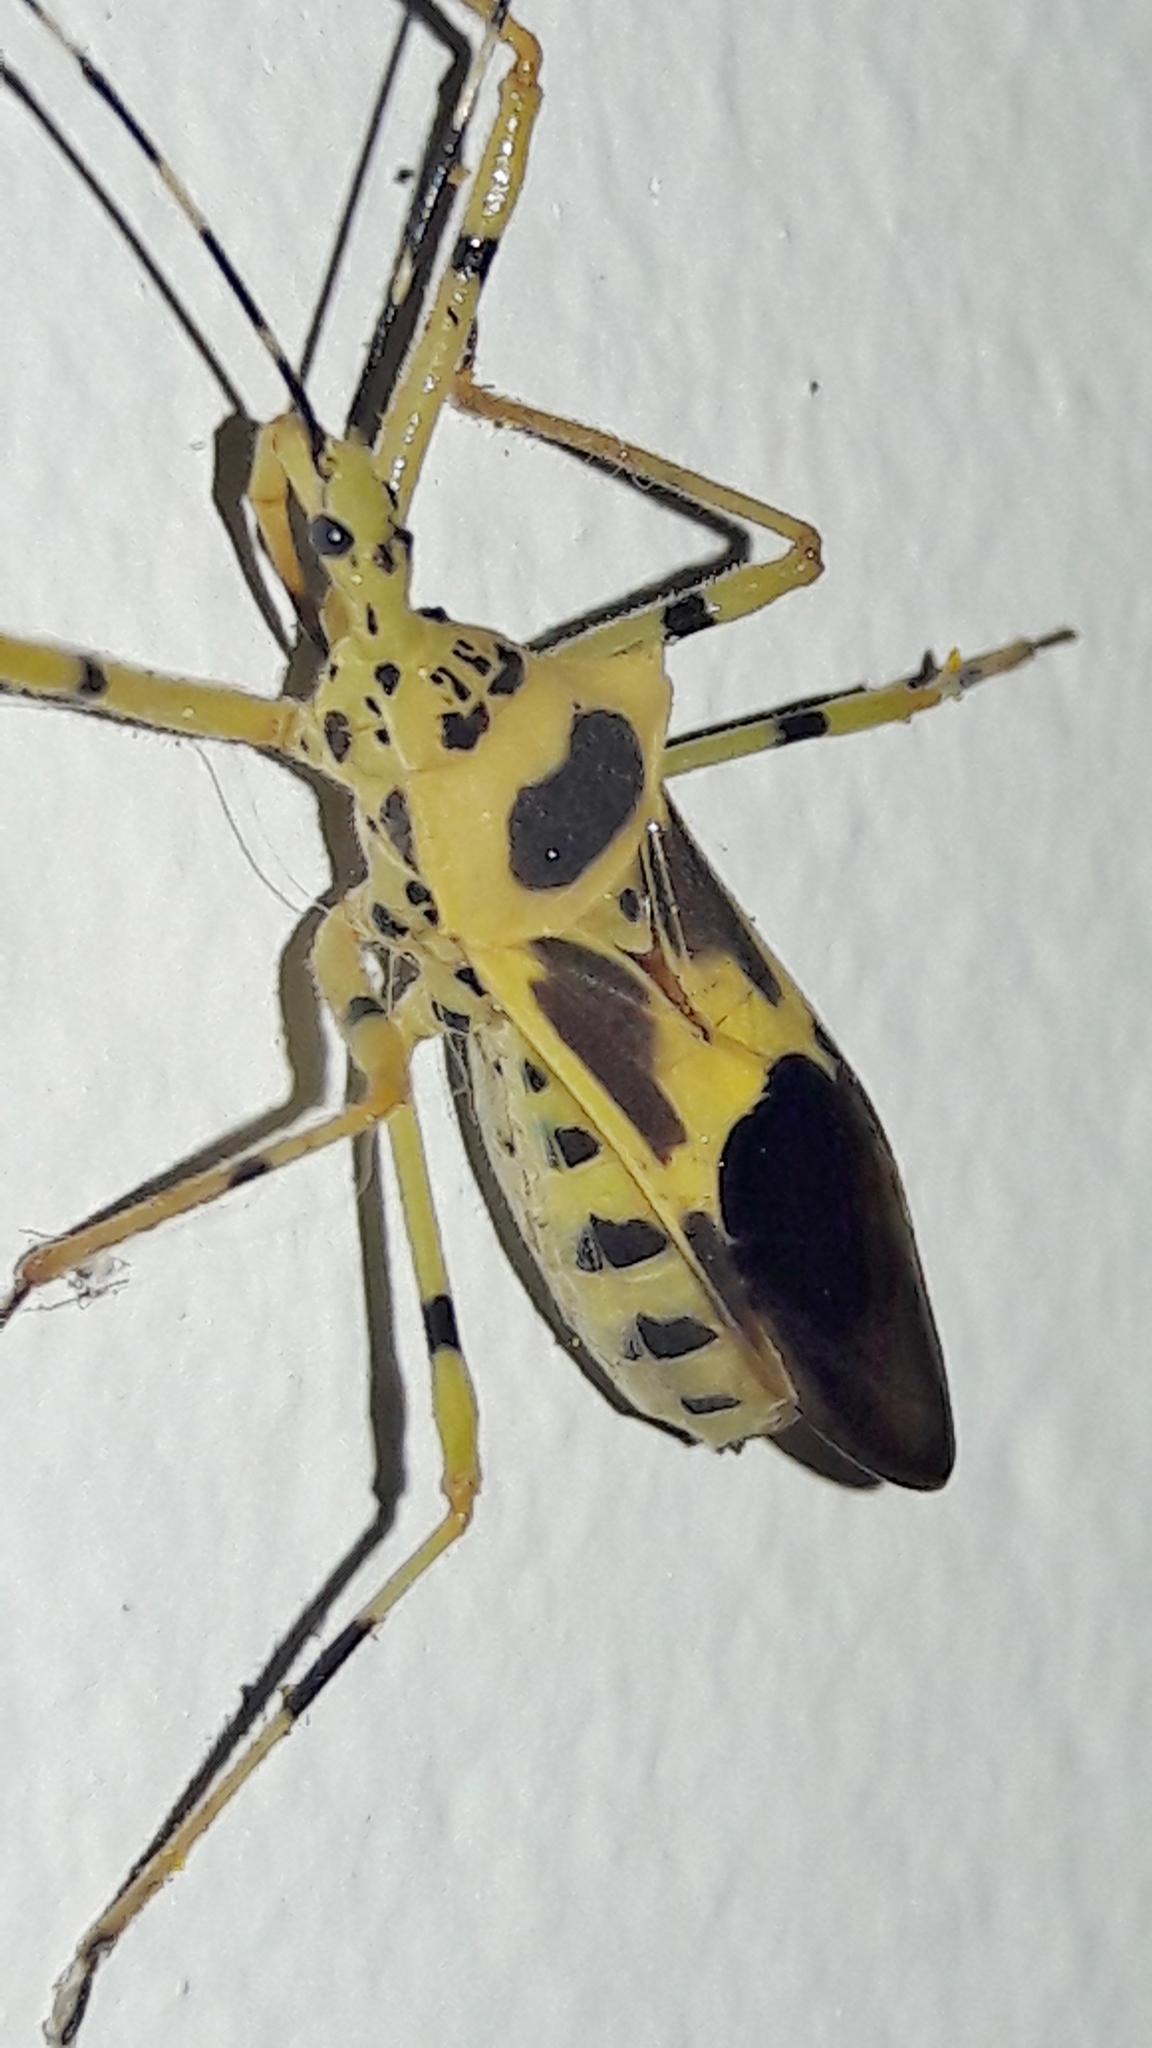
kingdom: Animalia
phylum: Arthropoda
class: Insecta
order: Hemiptera
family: Reduviidae
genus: Zelus
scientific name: Zelus armillatus
